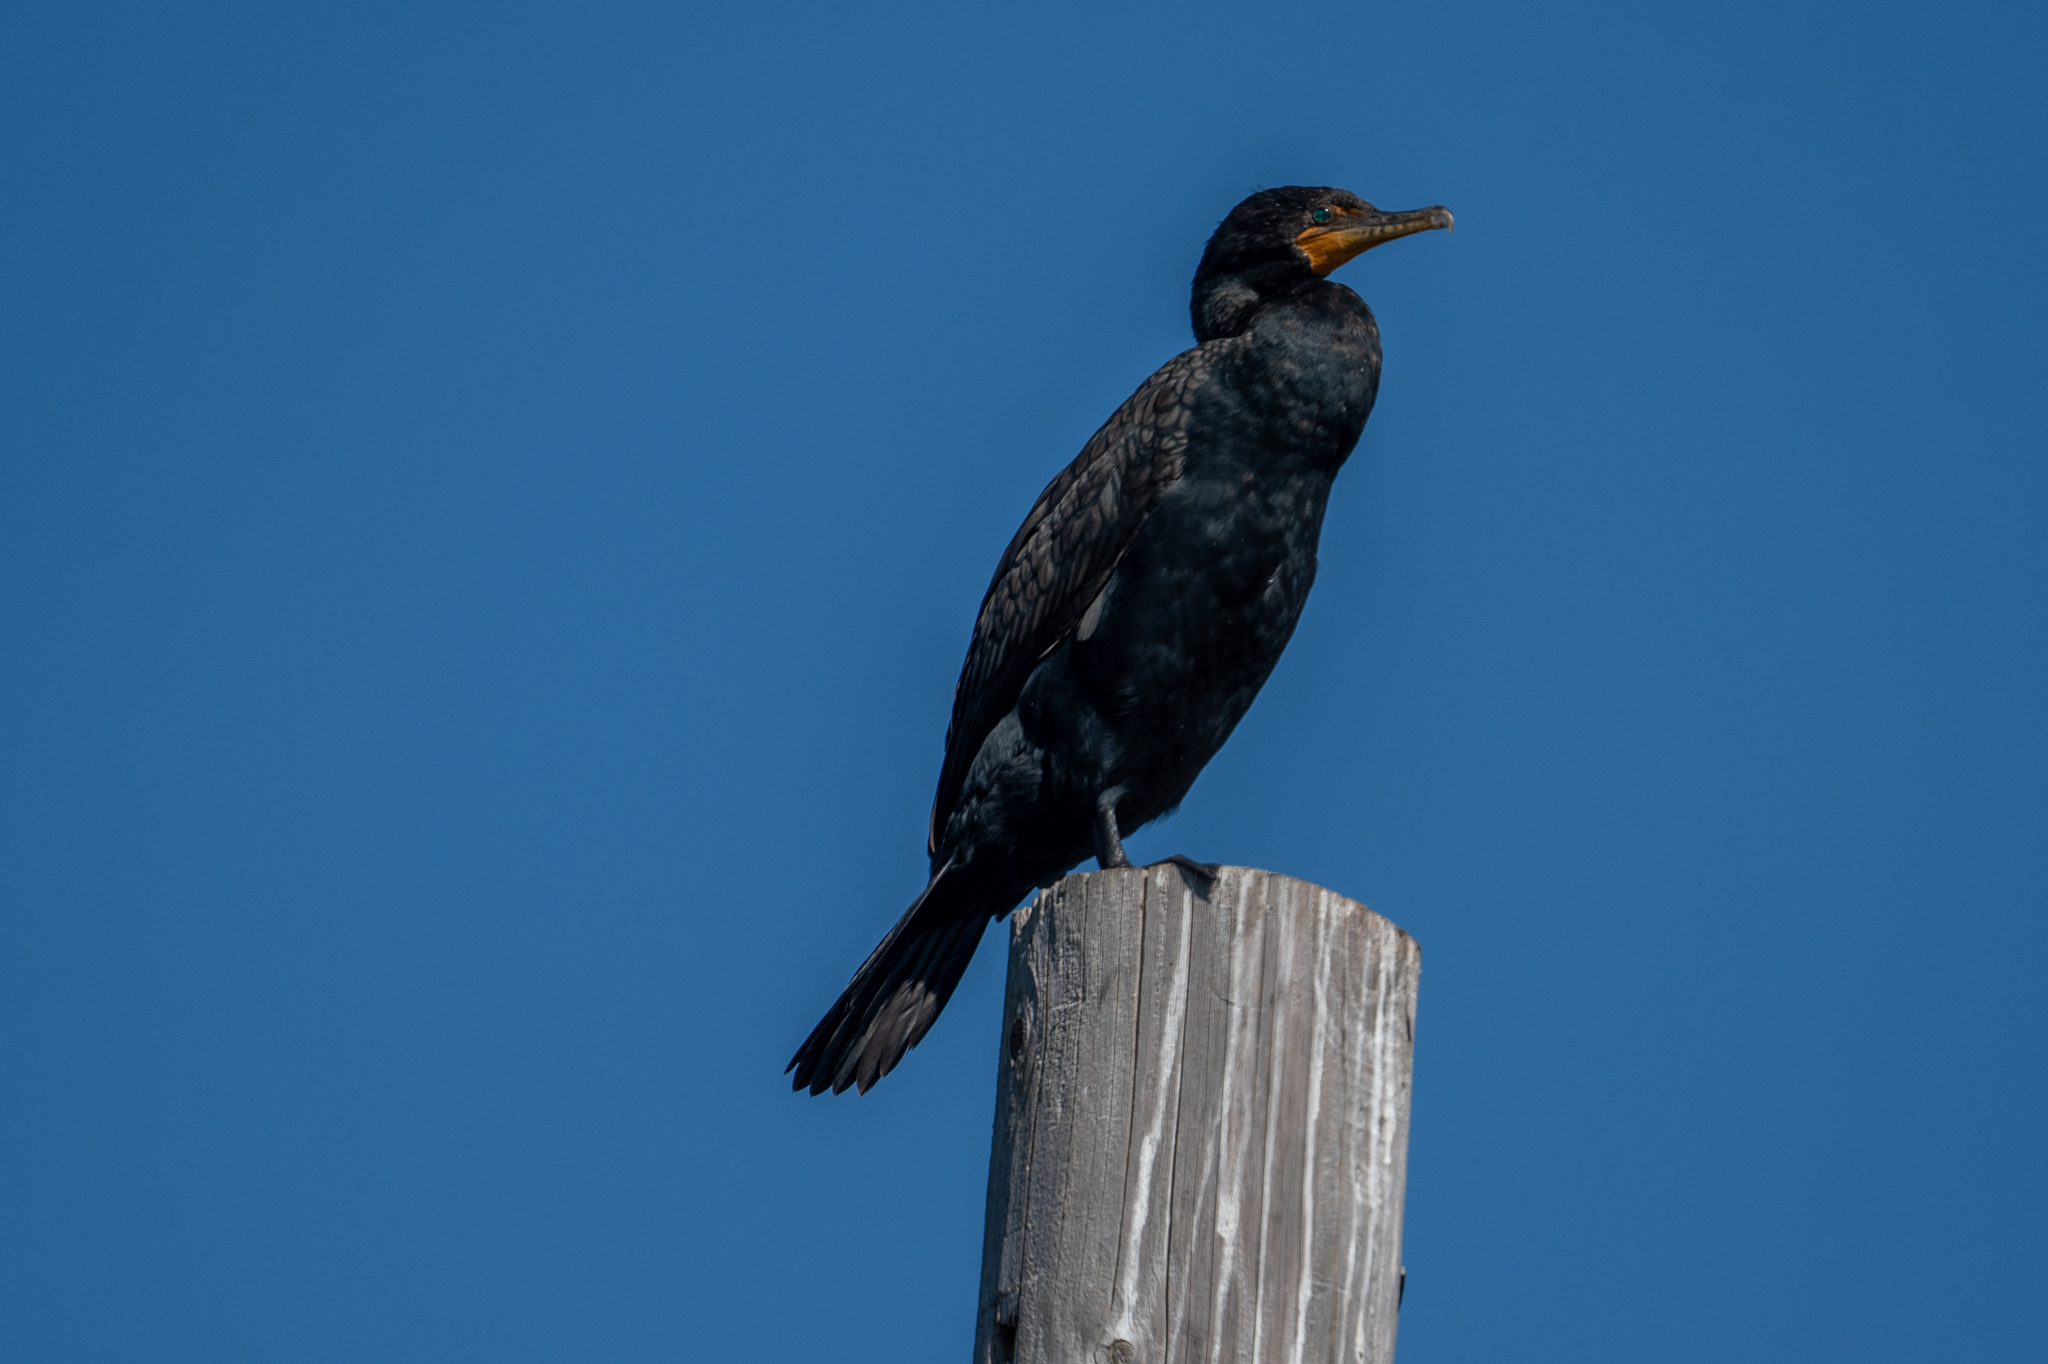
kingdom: Animalia
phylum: Chordata
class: Aves
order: Suliformes
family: Phalacrocoracidae
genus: Phalacrocorax
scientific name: Phalacrocorax auritus
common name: Double-crested cormorant
